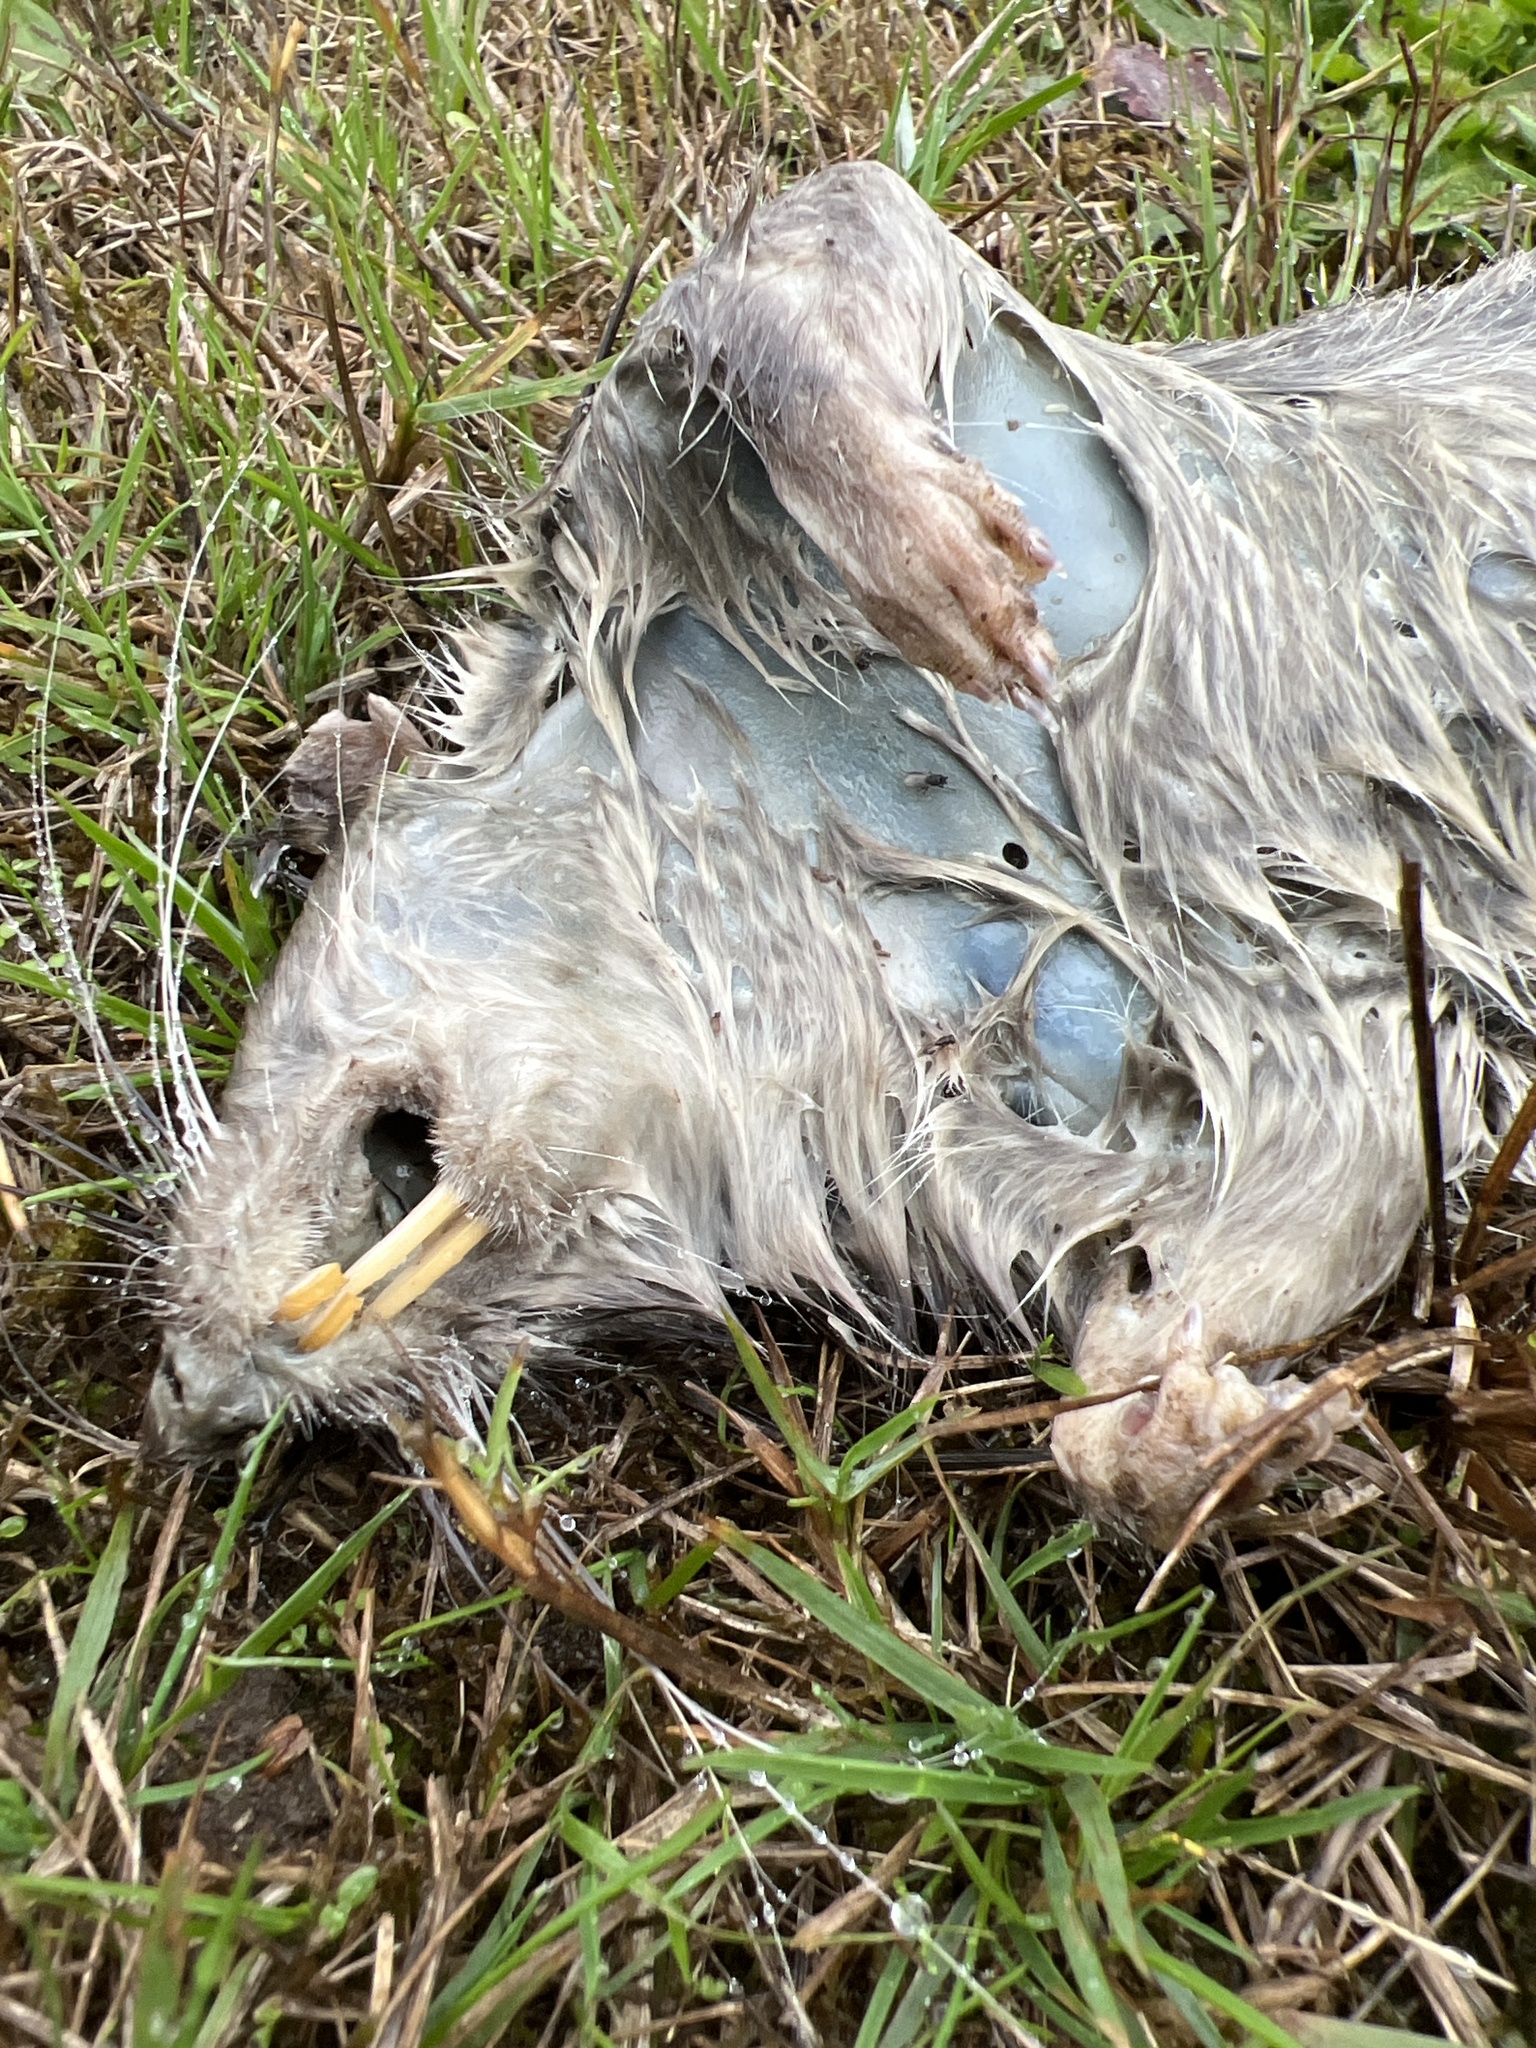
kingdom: Animalia
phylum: Chordata
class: Mammalia
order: Rodentia
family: Muridae
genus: Rattus
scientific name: Rattus norvegicus
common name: Brown rat
